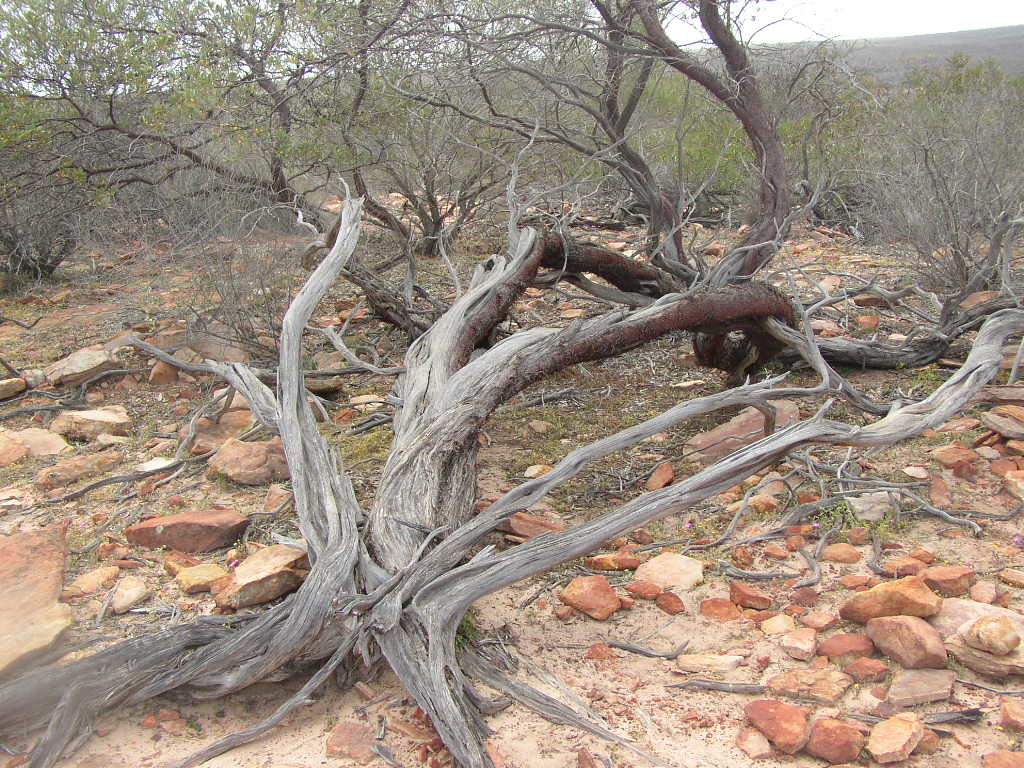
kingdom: Plantae
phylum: Tracheophyta
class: Magnoliopsida
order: Fabales
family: Fabaceae
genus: Acacia
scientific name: Acacia grasbyi
